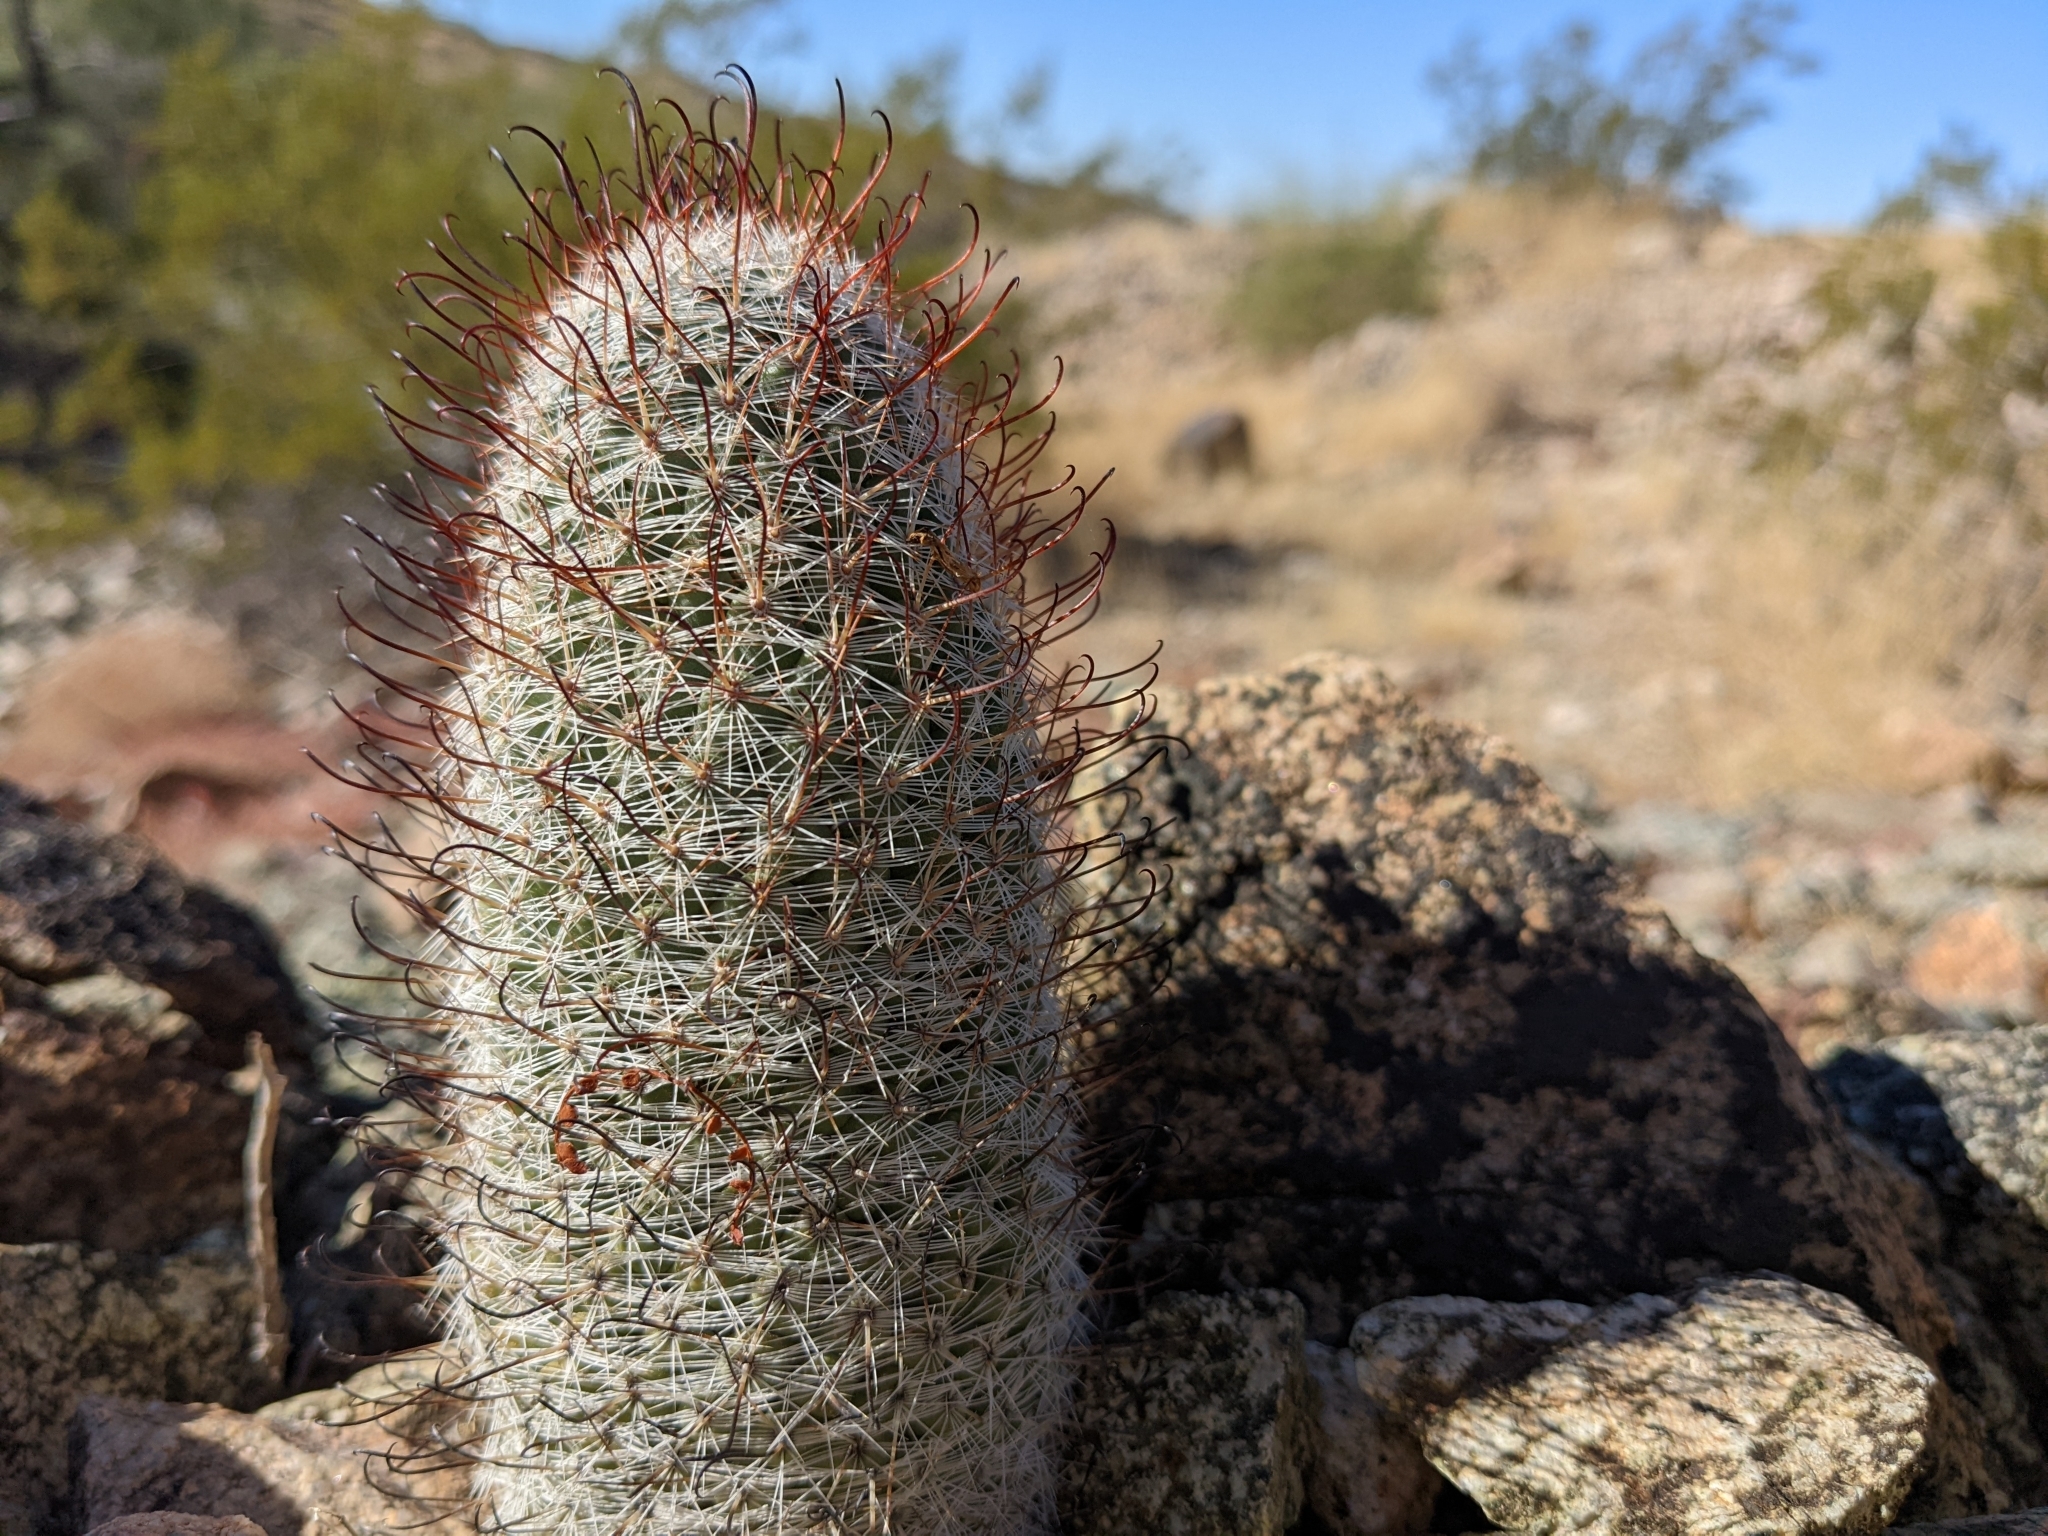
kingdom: Plantae
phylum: Tracheophyta
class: Magnoliopsida
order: Caryophyllales
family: Cactaceae
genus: Cochemiea
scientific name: Cochemiea grahamii
